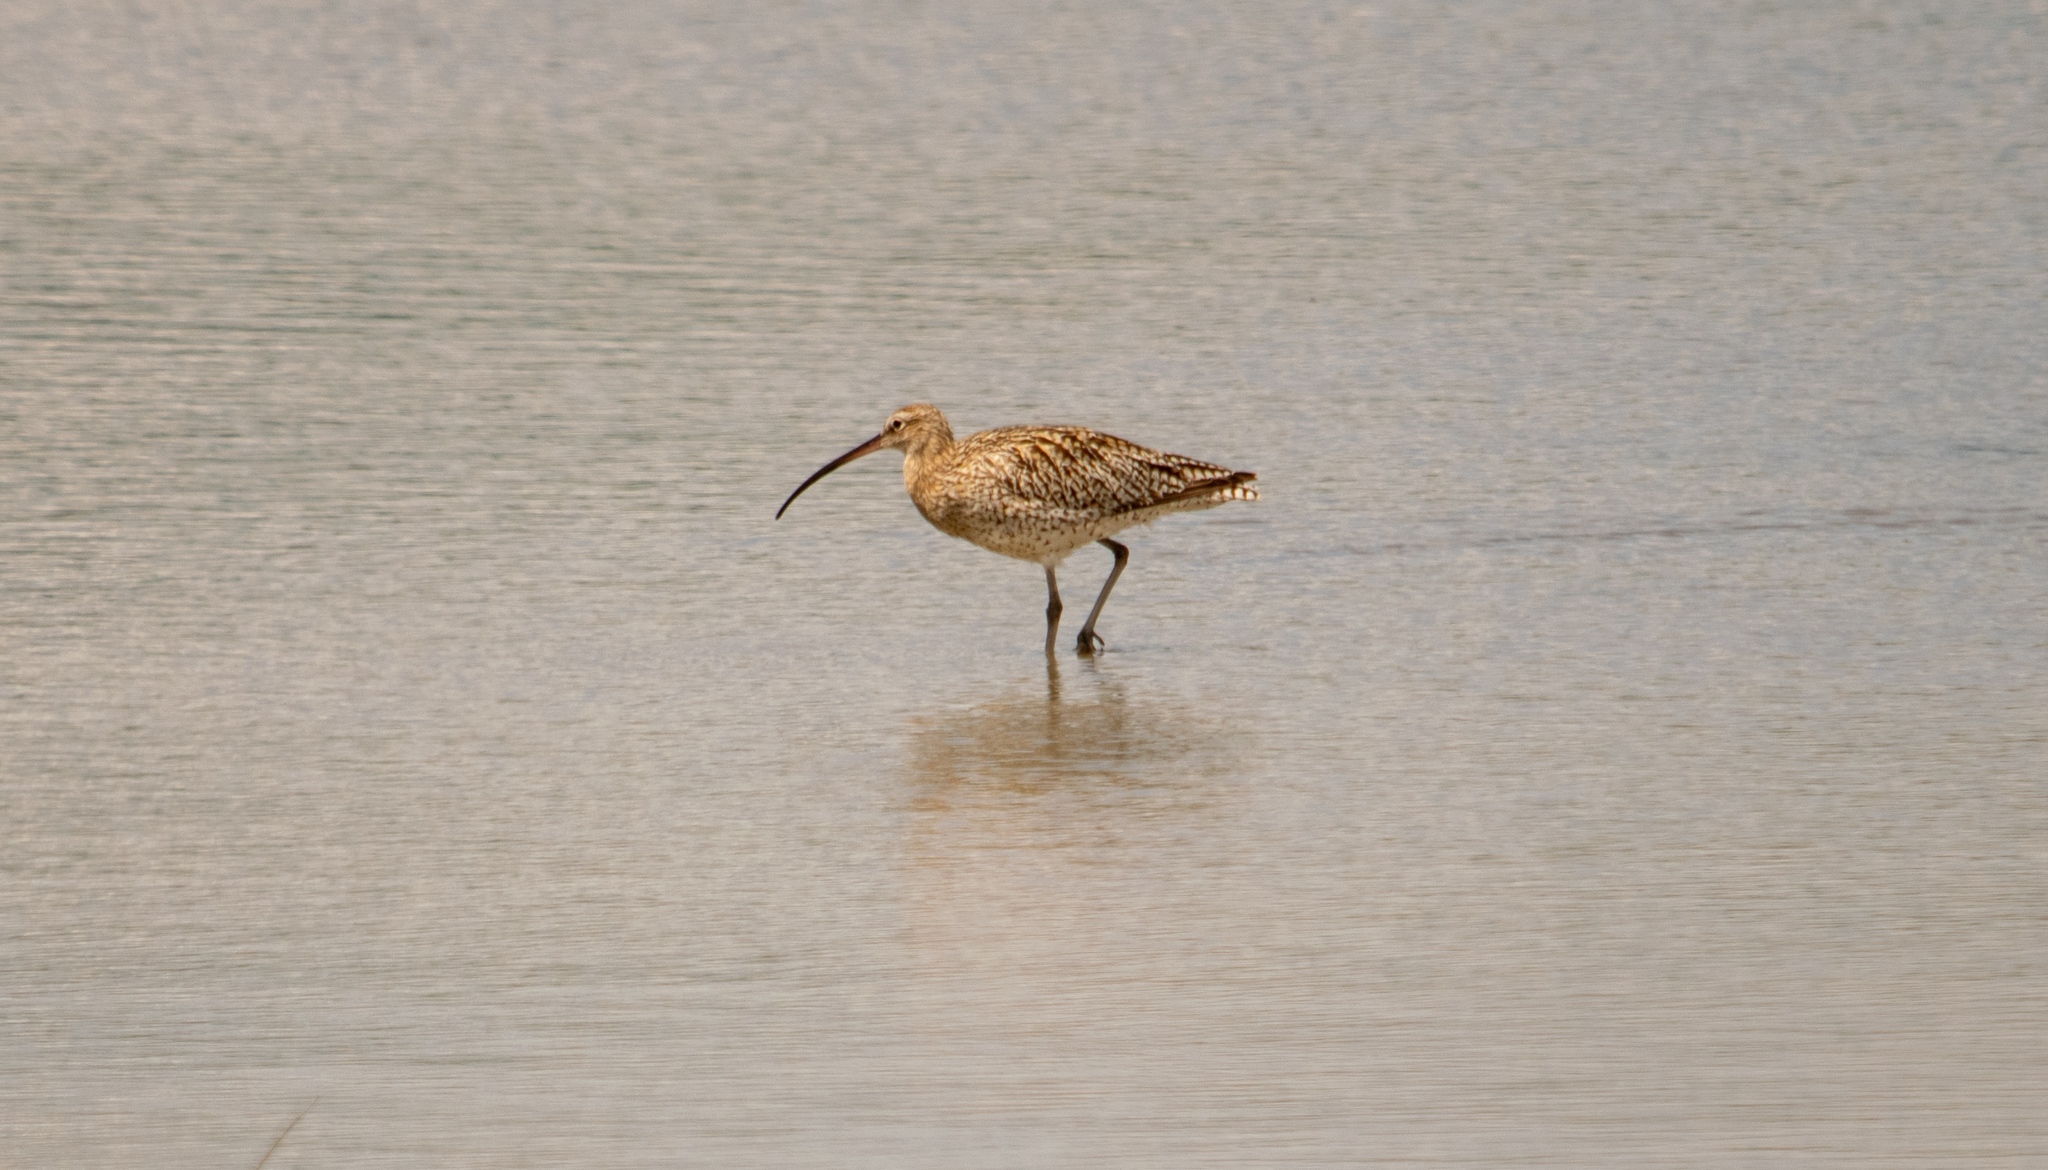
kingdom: Animalia
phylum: Chordata
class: Aves
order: Charadriiformes
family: Scolopacidae
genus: Numenius
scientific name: Numenius arquata
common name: Eurasian curlew
